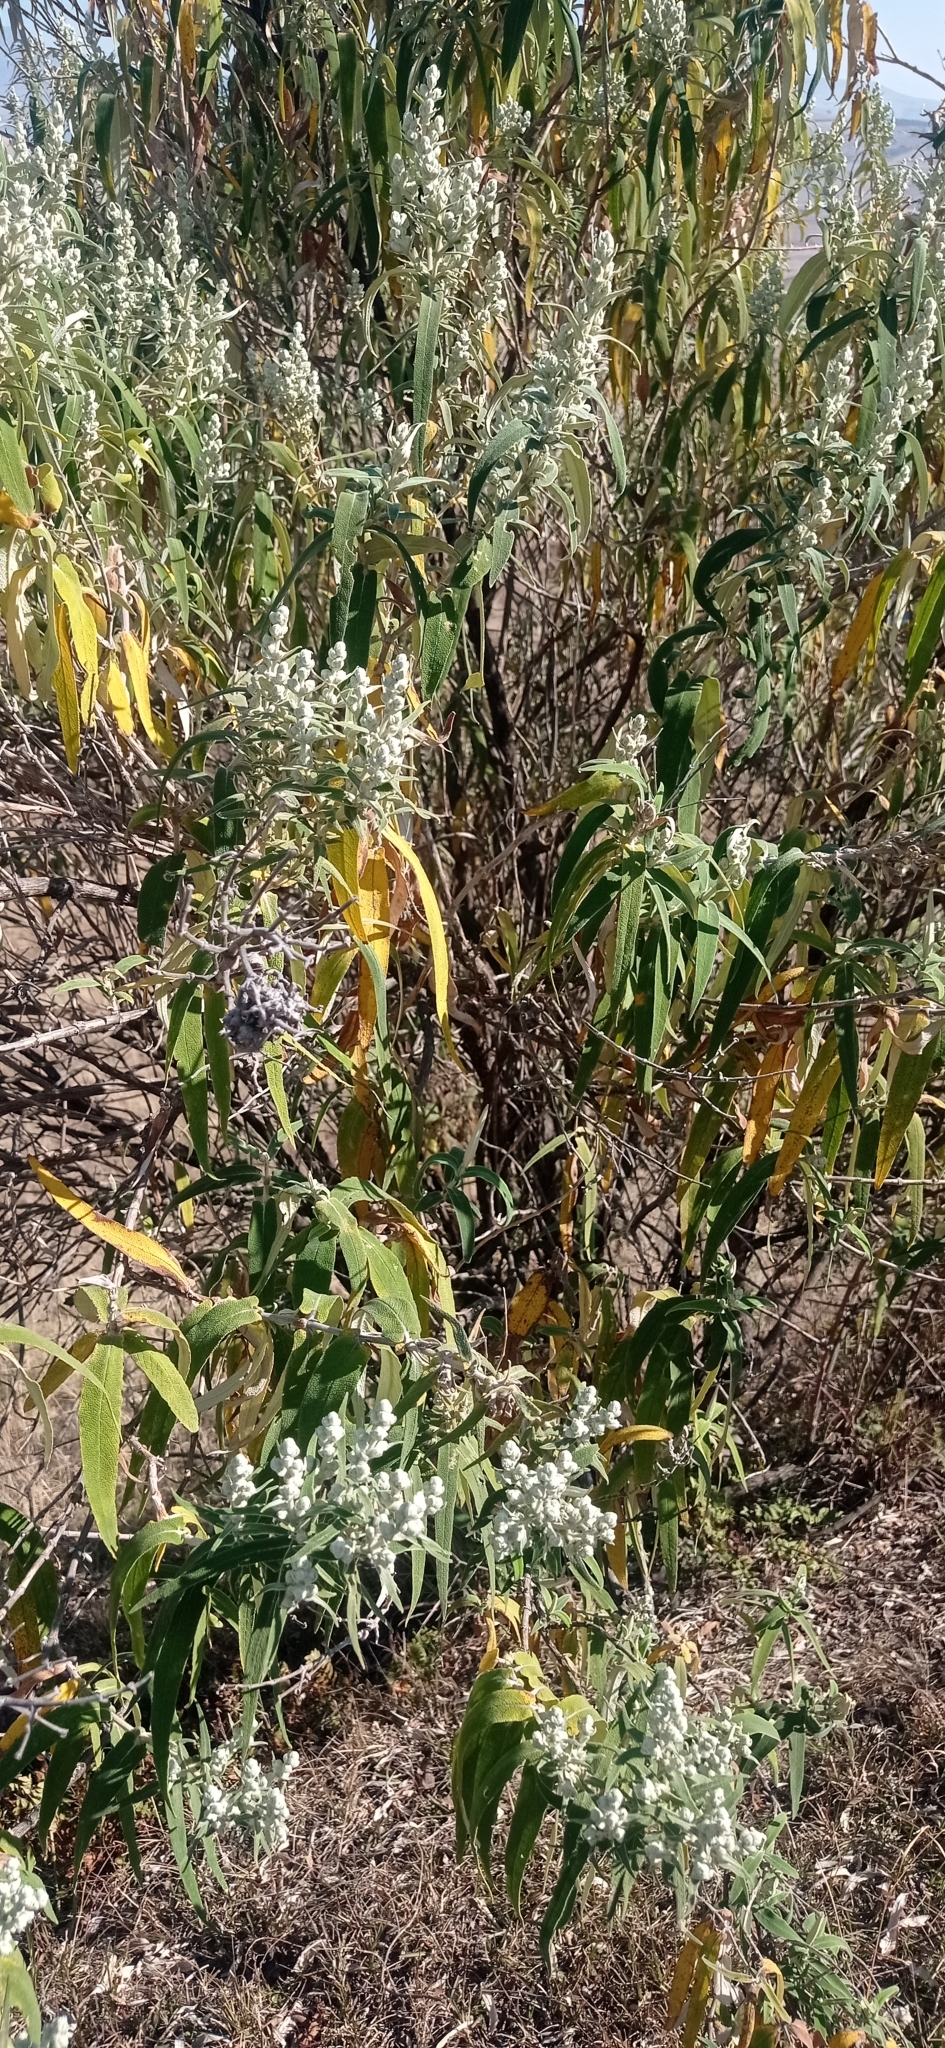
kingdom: Plantae
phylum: Tracheophyta
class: Magnoliopsida
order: Lamiales
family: Scrophulariaceae
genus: Buddleja
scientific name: Buddleja salviifolia
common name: Sagewood
